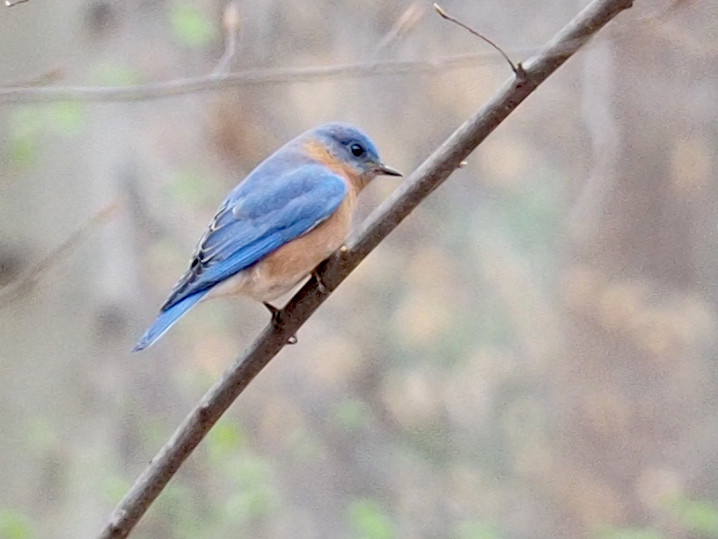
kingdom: Animalia
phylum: Chordata
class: Aves
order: Passeriformes
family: Turdidae
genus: Sialia
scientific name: Sialia sialis
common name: Eastern bluebird
